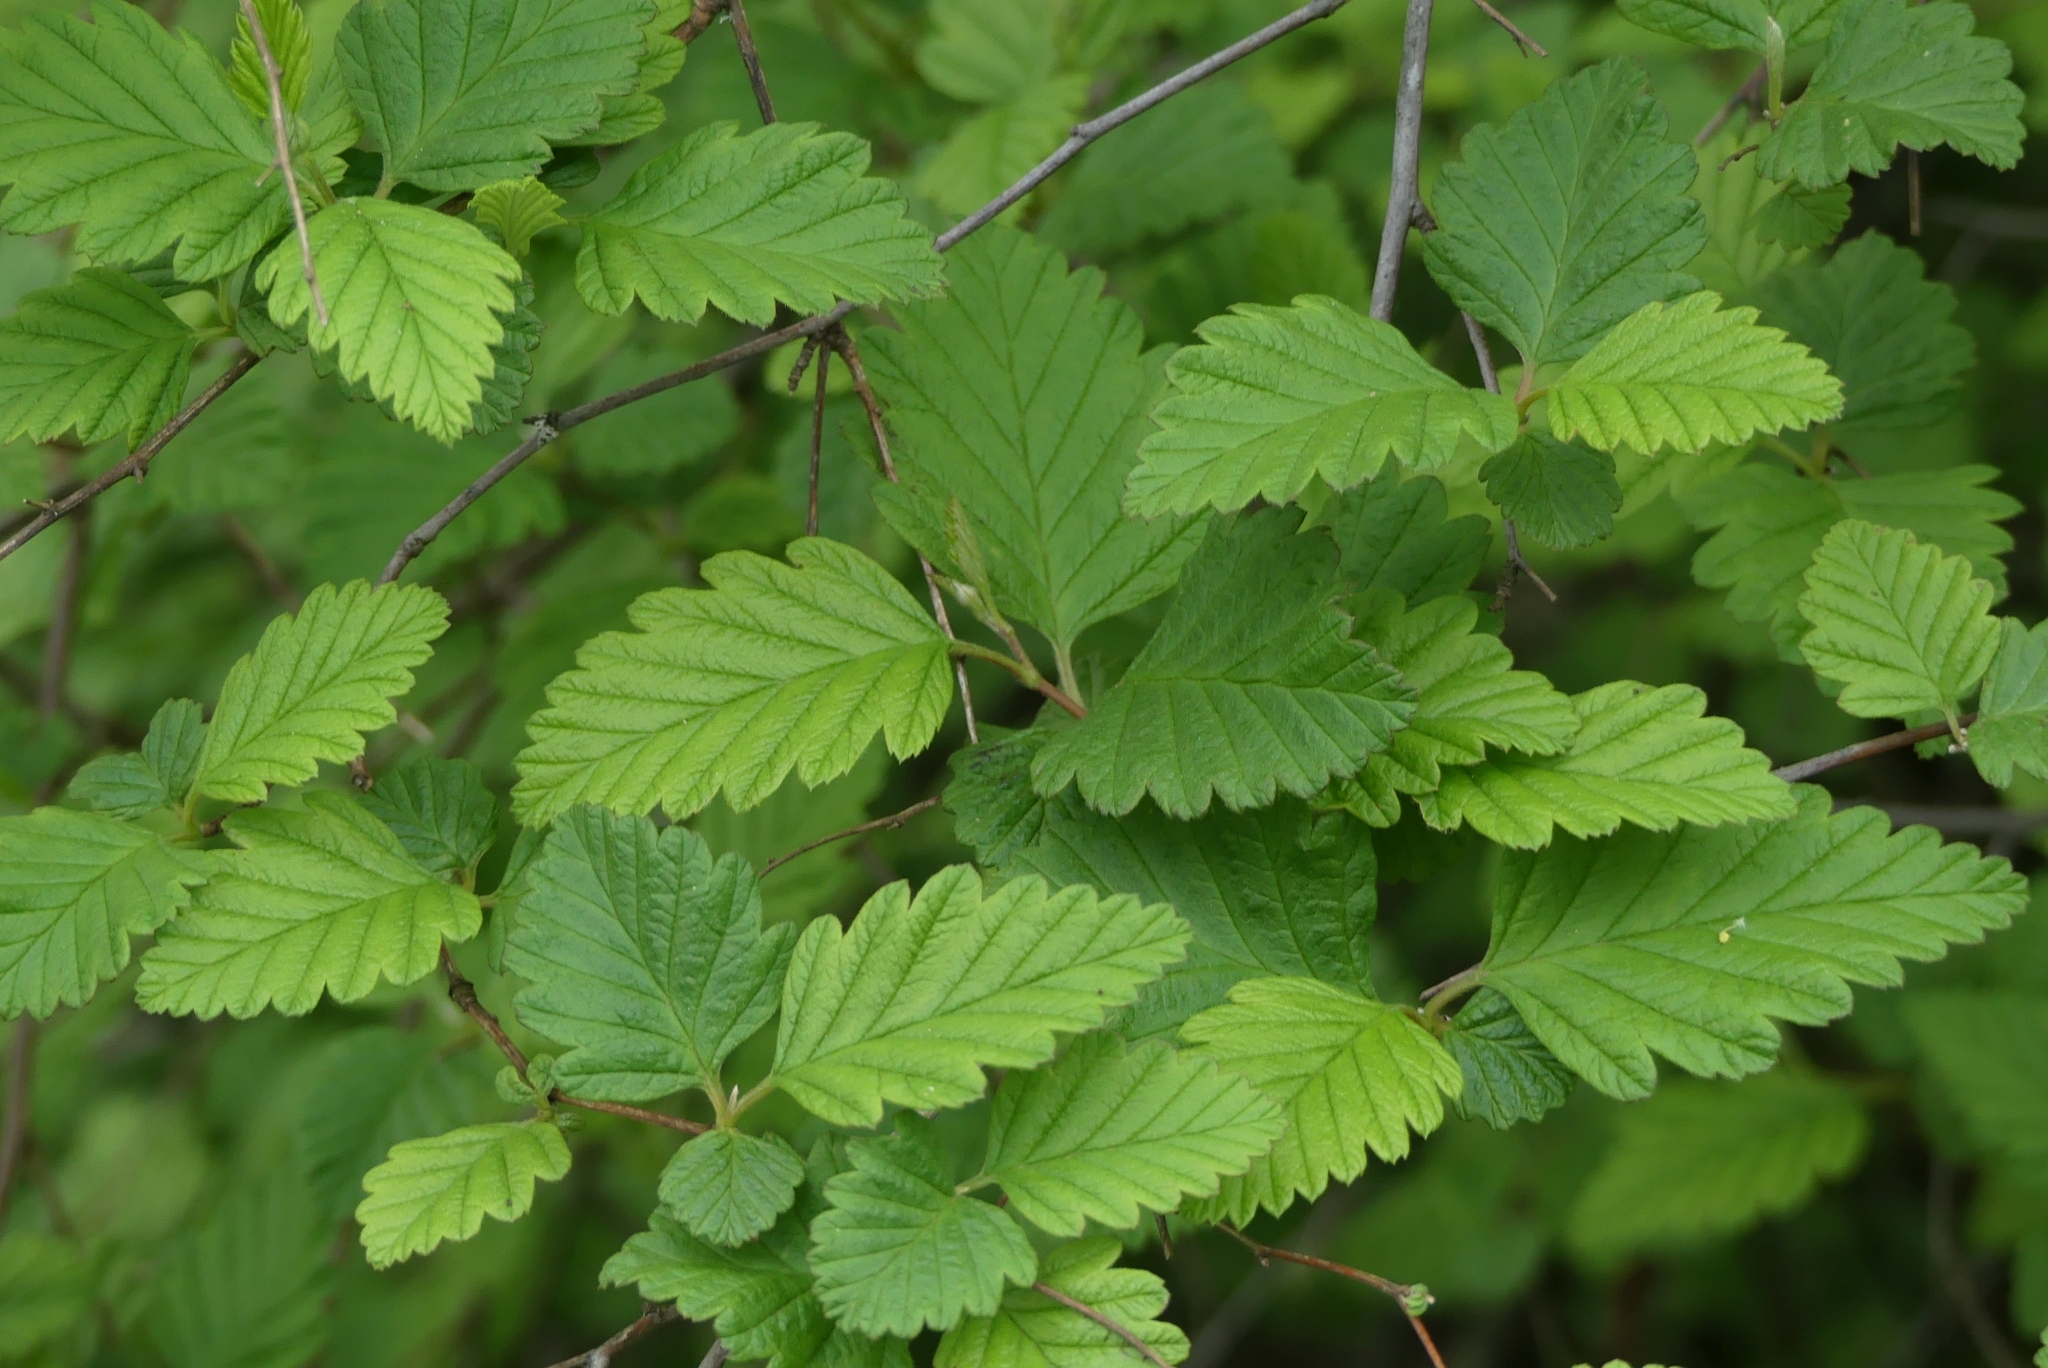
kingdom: Plantae
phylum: Tracheophyta
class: Magnoliopsida
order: Rosales
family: Rosaceae
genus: Holodiscus
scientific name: Holodiscus discolor
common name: Oceanspray
